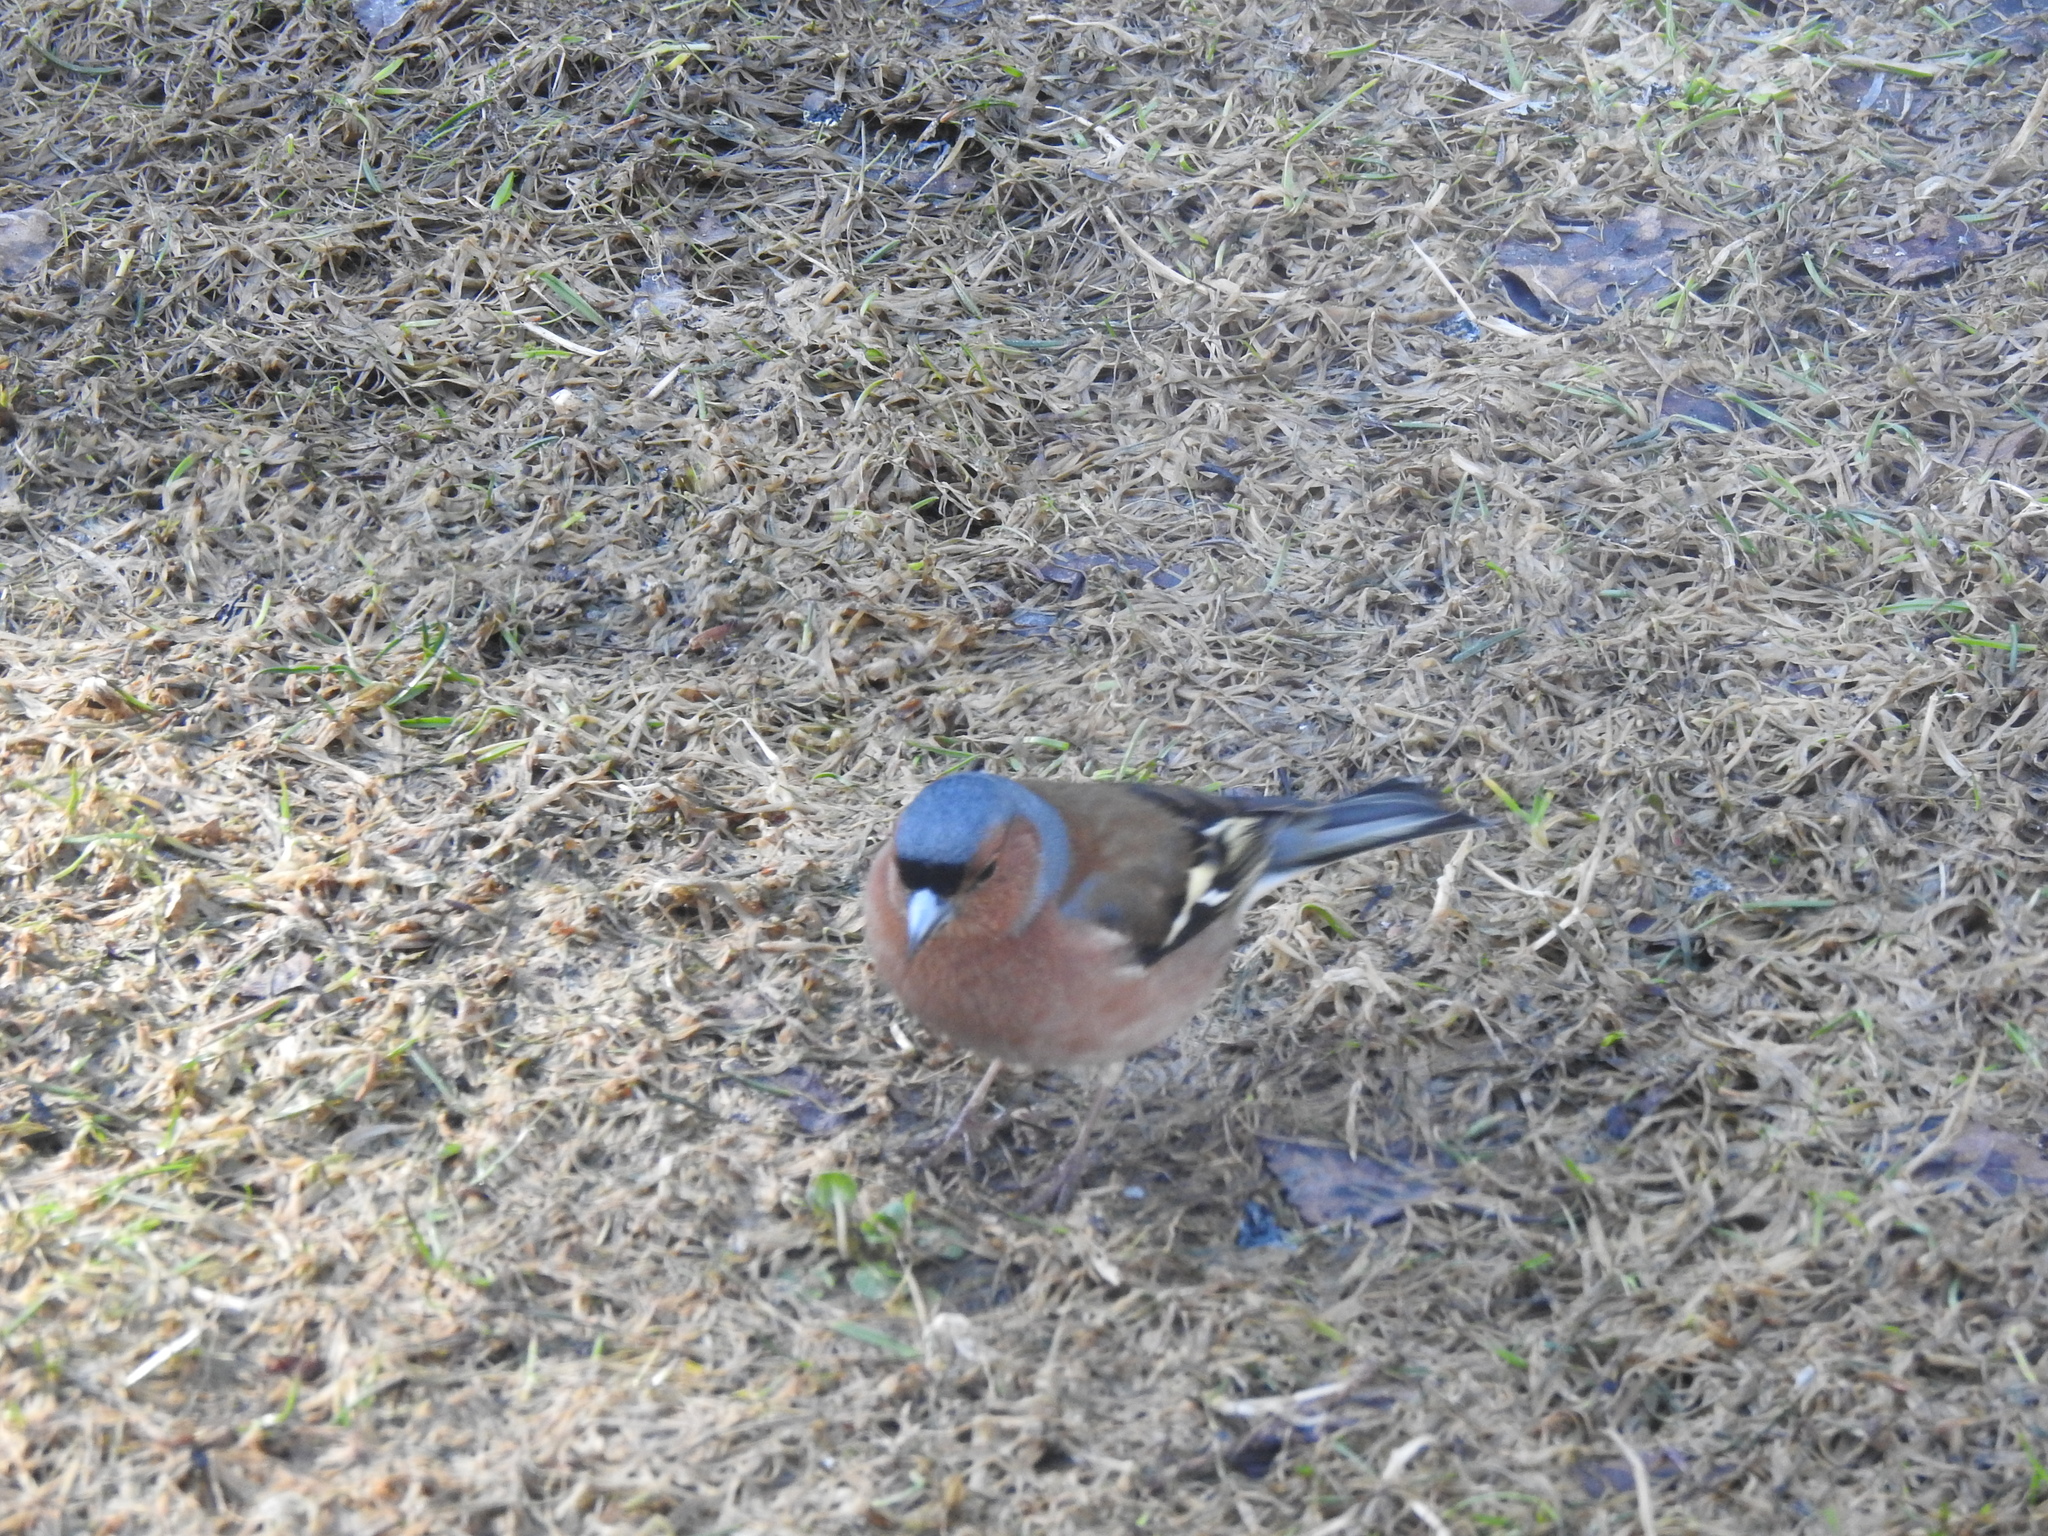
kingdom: Animalia
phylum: Chordata
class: Aves
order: Passeriformes
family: Fringillidae
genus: Fringilla
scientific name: Fringilla coelebs
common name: Common chaffinch
